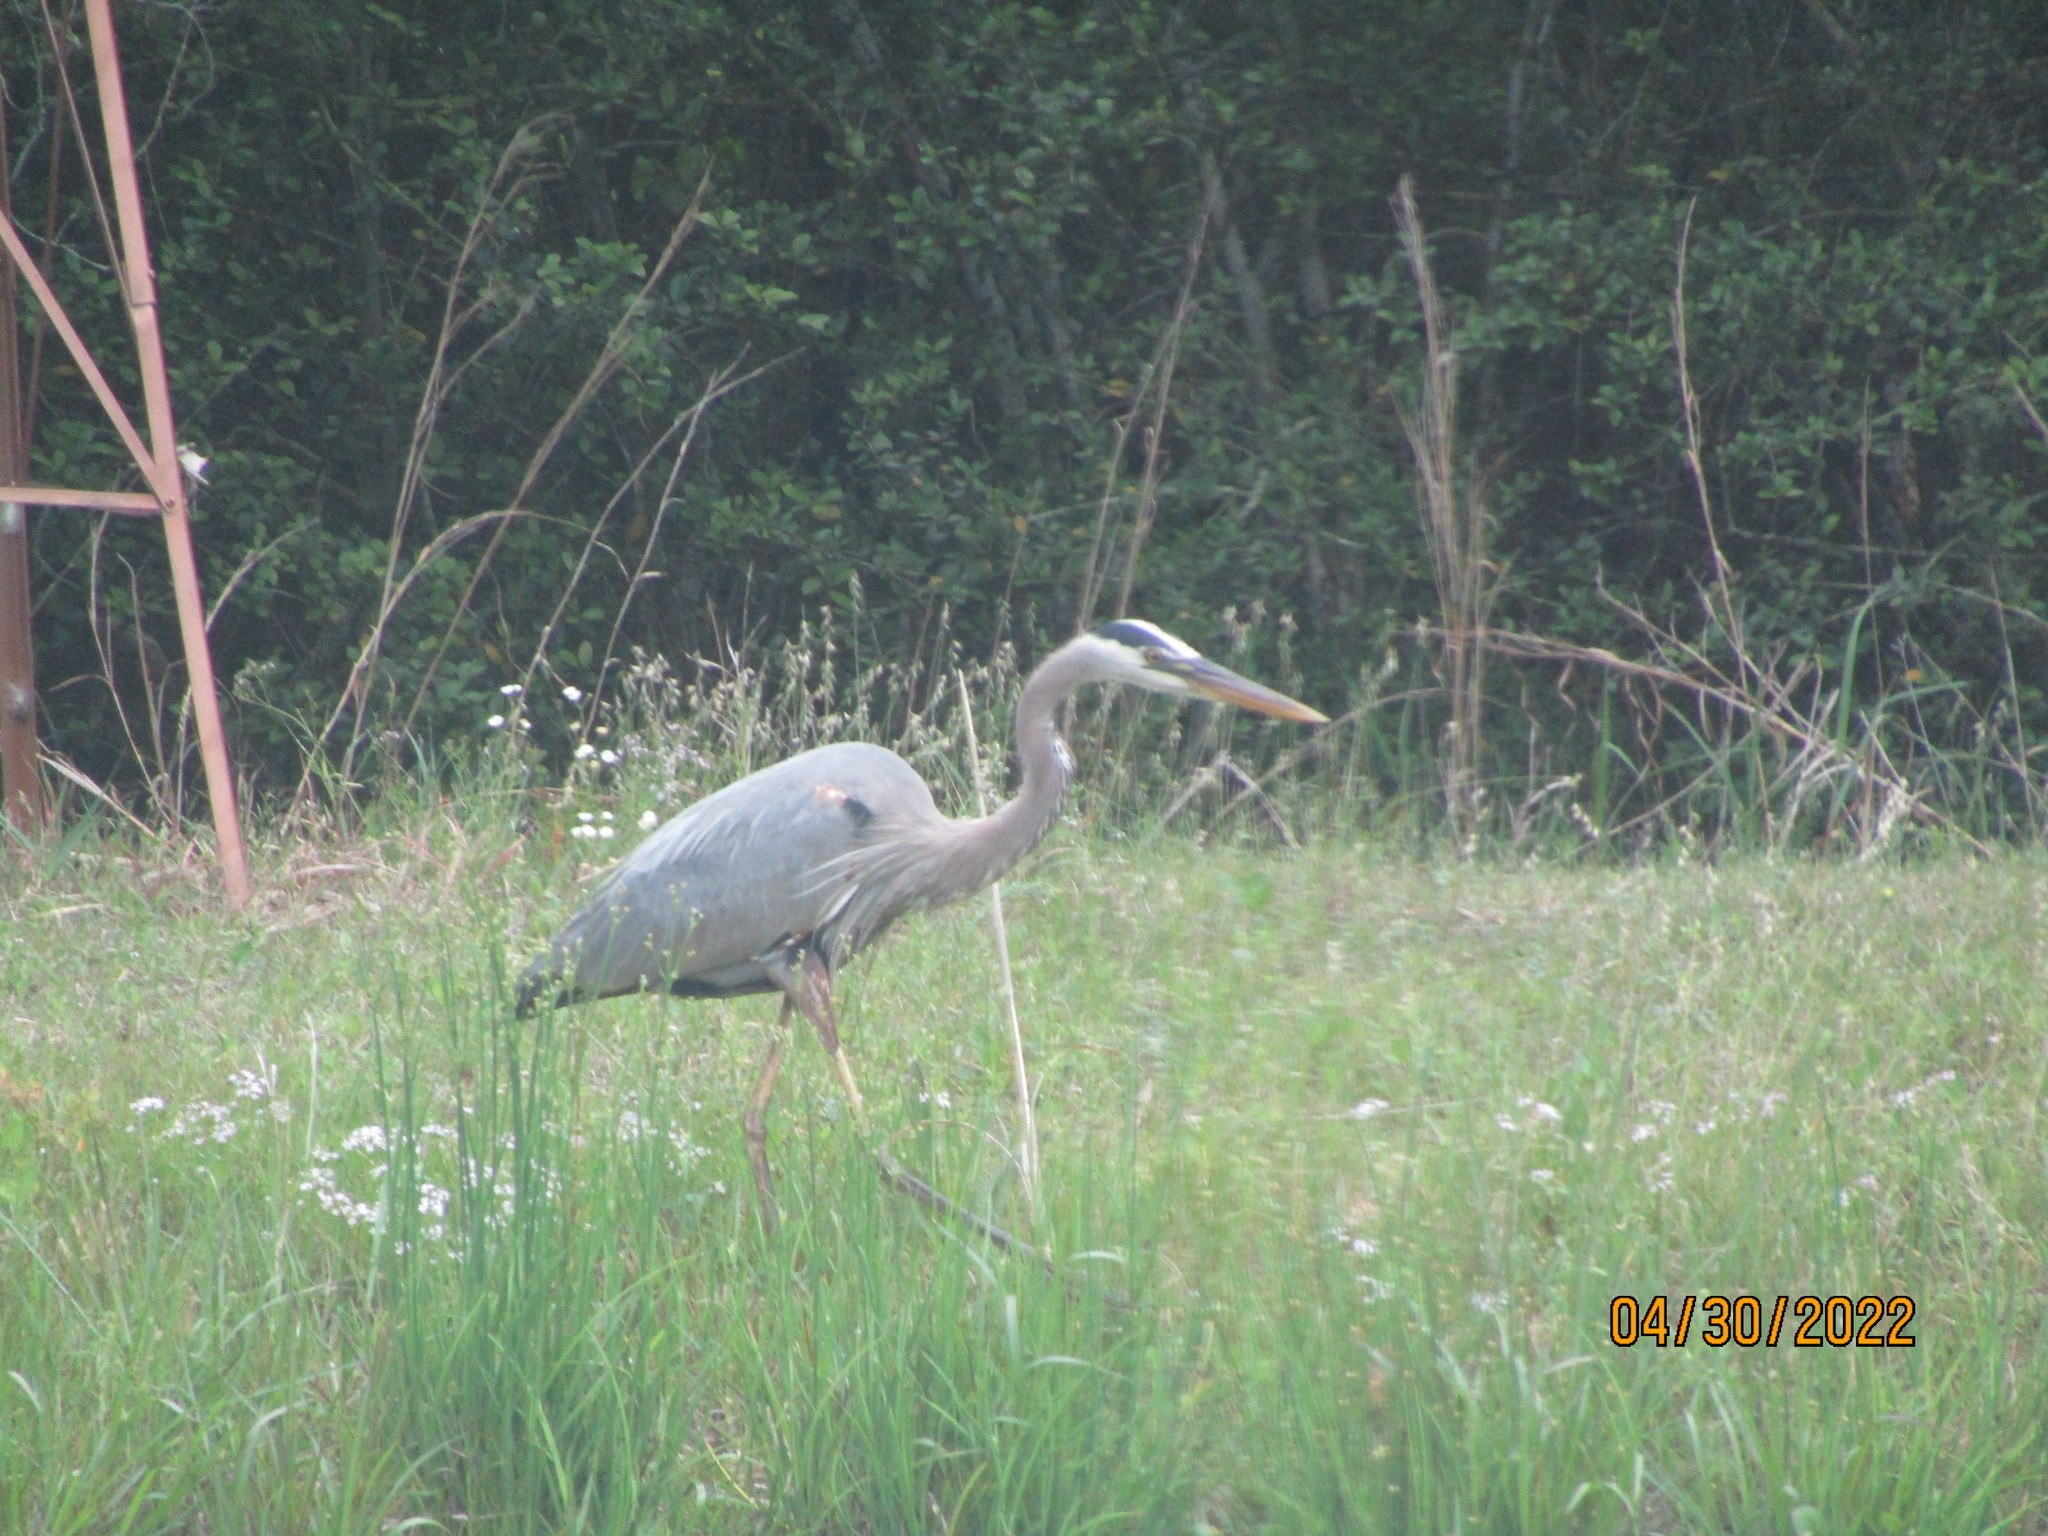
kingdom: Animalia
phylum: Chordata
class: Aves
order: Pelecaniformes
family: Ardeidae
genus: Ardea
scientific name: Ardea herodias
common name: Great blue heron
